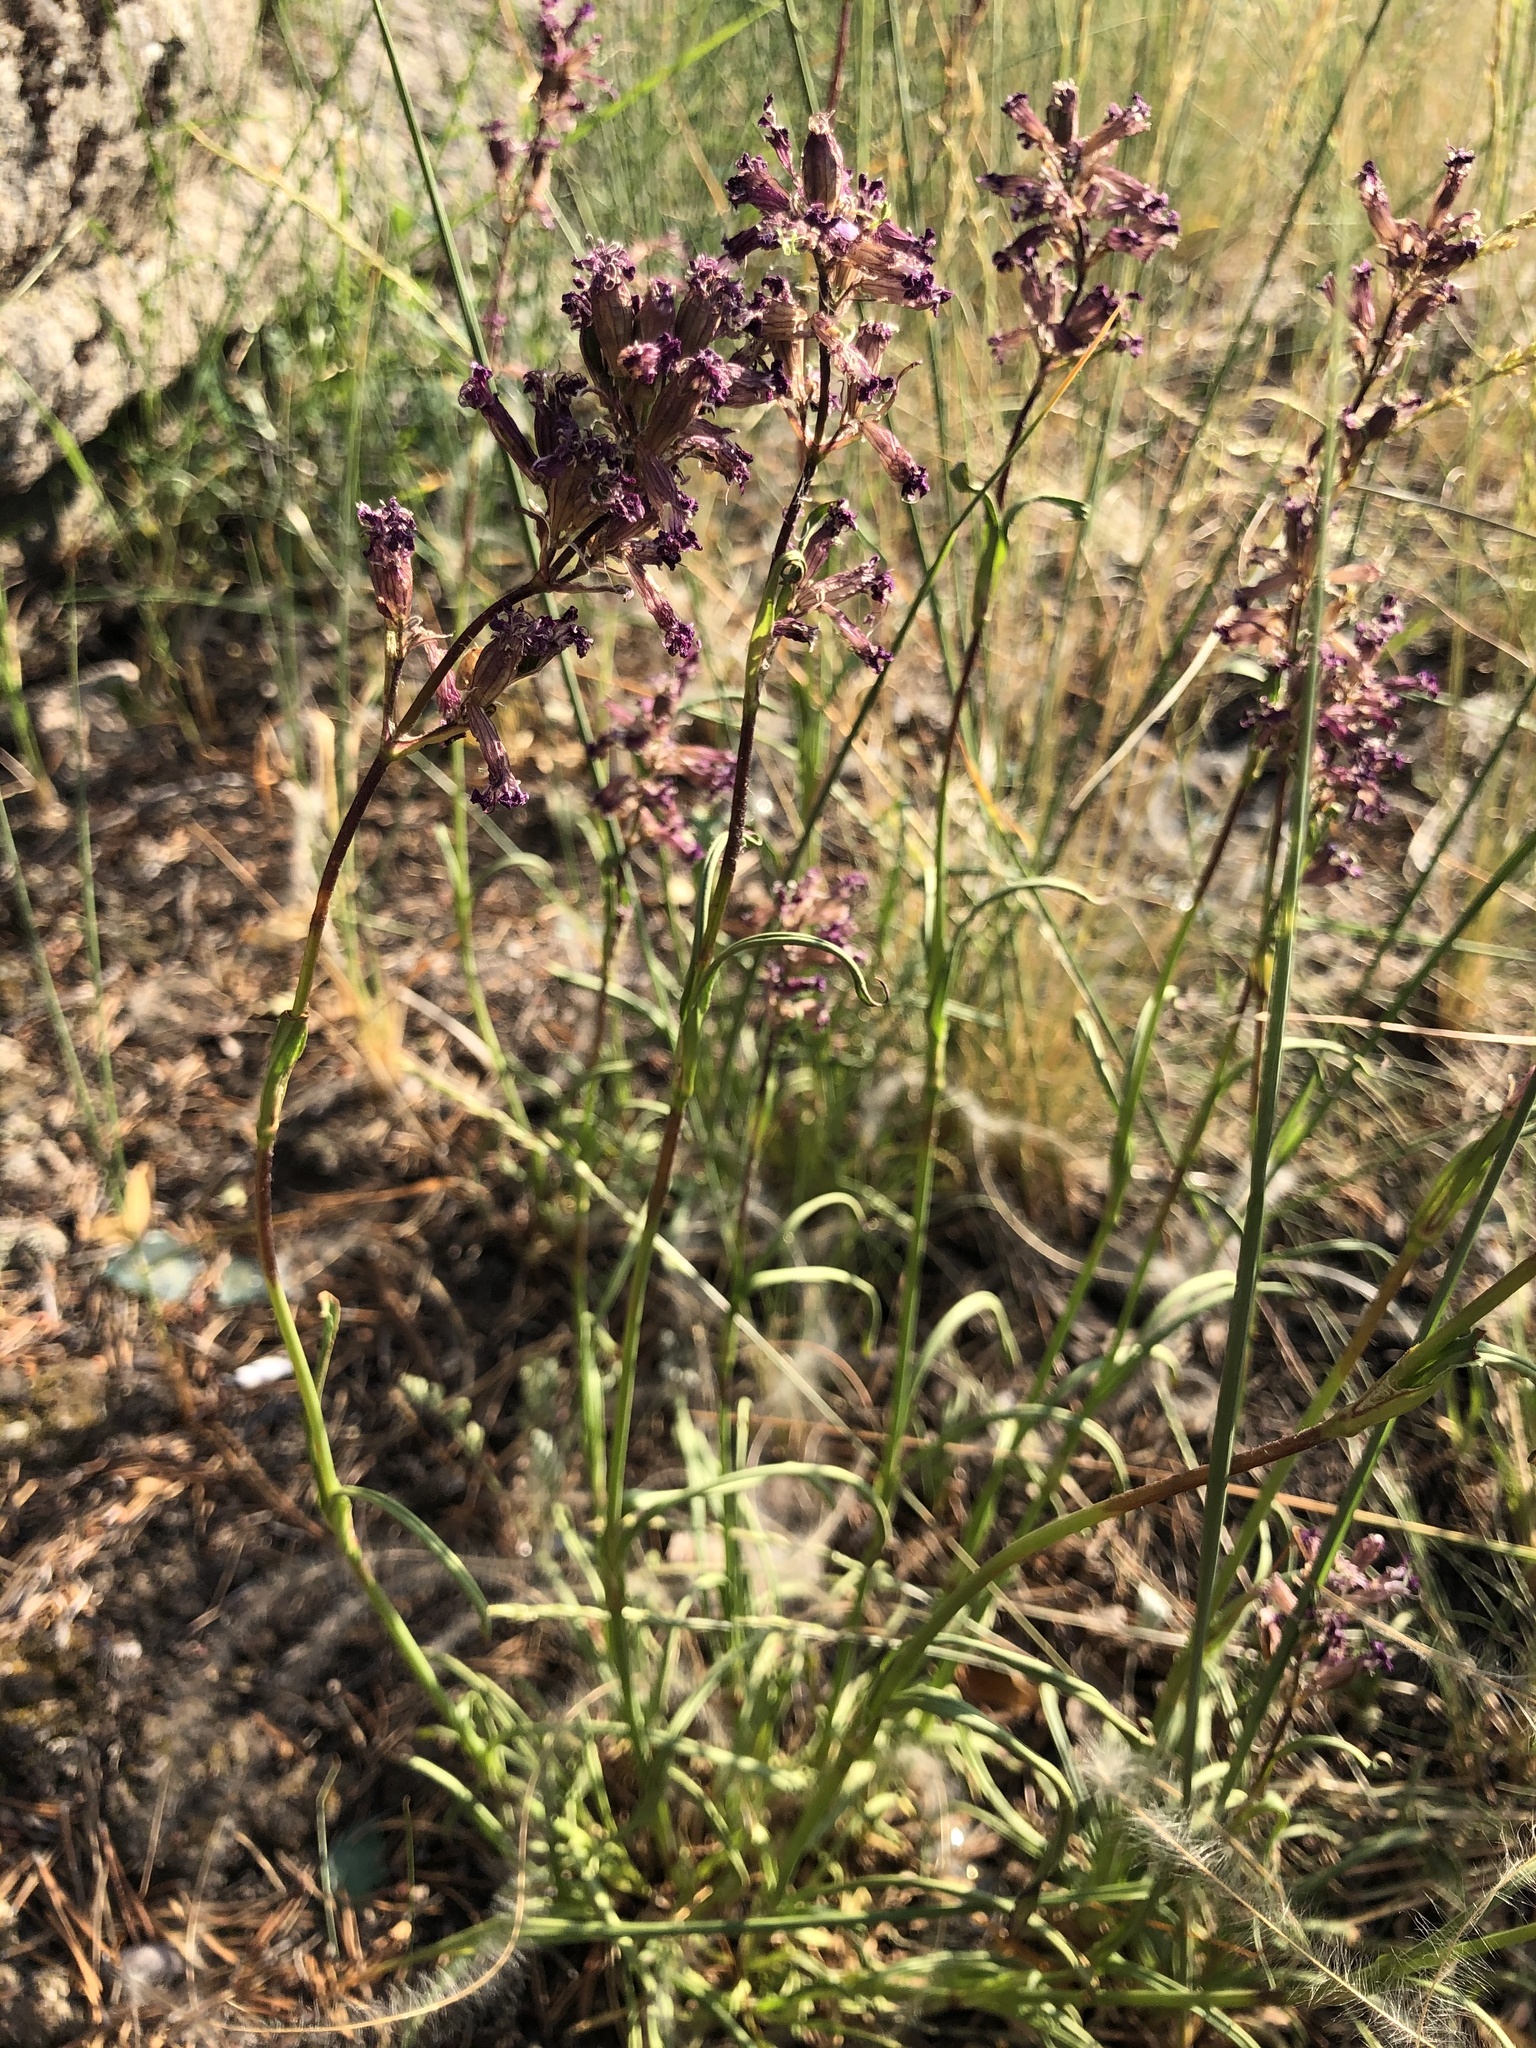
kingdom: Plantae
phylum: Tracheophyta
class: Magnoliopsida
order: Caryophyllales
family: Caryophyllaceae
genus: Viscaria
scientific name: Viscaria vulgaris
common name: Clammy campion
